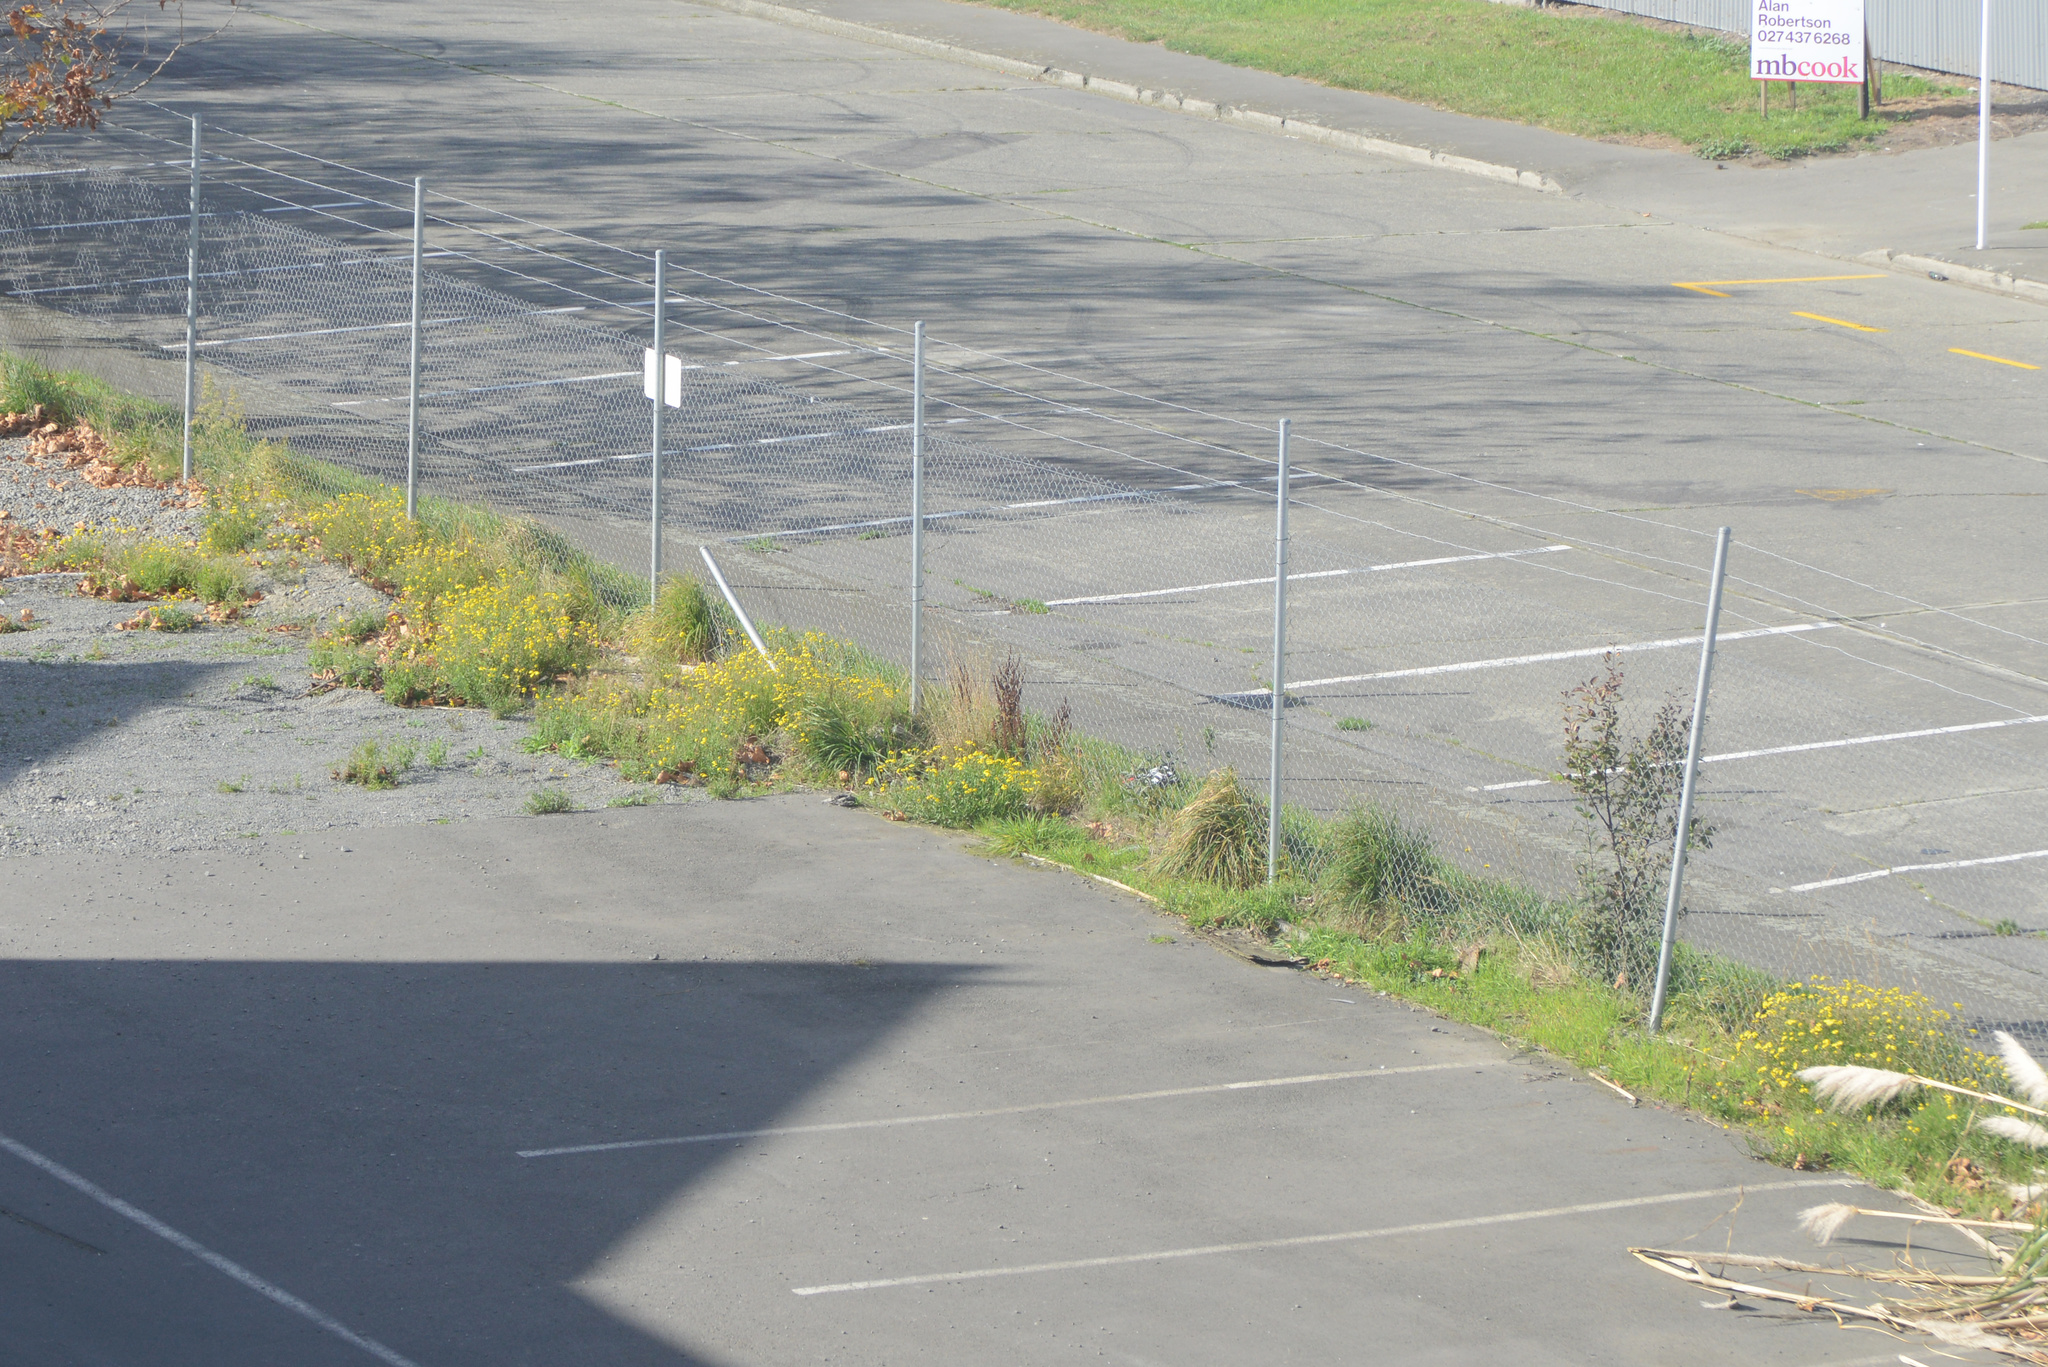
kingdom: Plantae
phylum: Tracheophyta
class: Magnoliopsida
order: Asterales
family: Asteraceae
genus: Senecio
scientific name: Senecio skirrhodon
